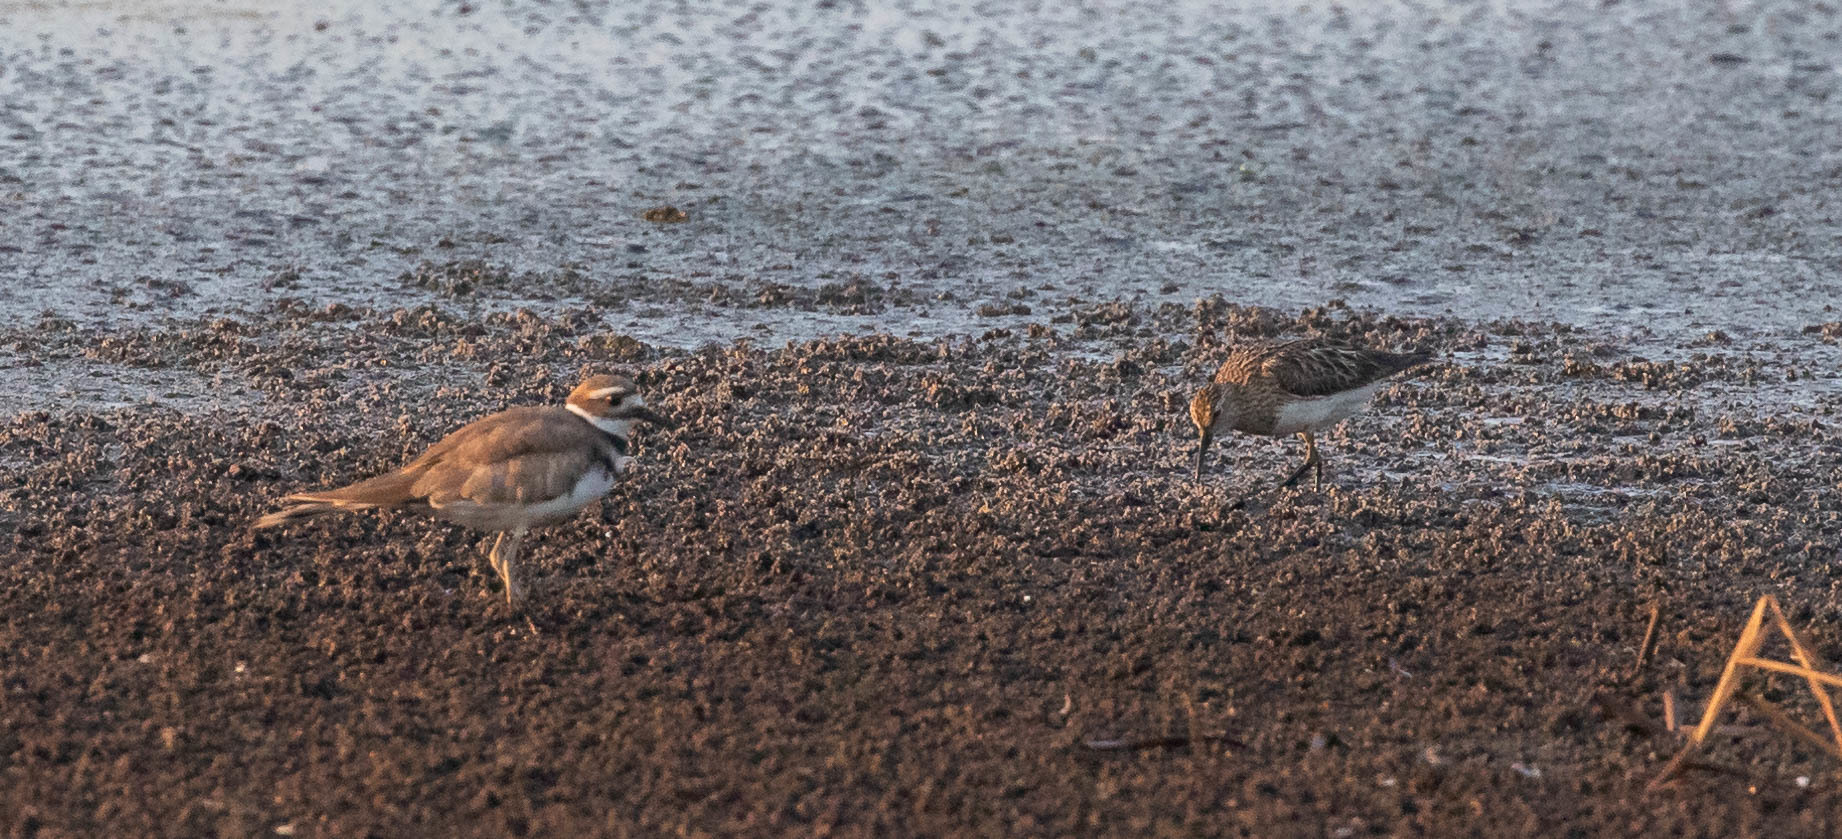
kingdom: Animalia
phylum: Chordata
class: Aves
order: Charadriiformes
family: Charadriidae
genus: Charadrius
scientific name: Charadrius vociferus
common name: Killdeer
